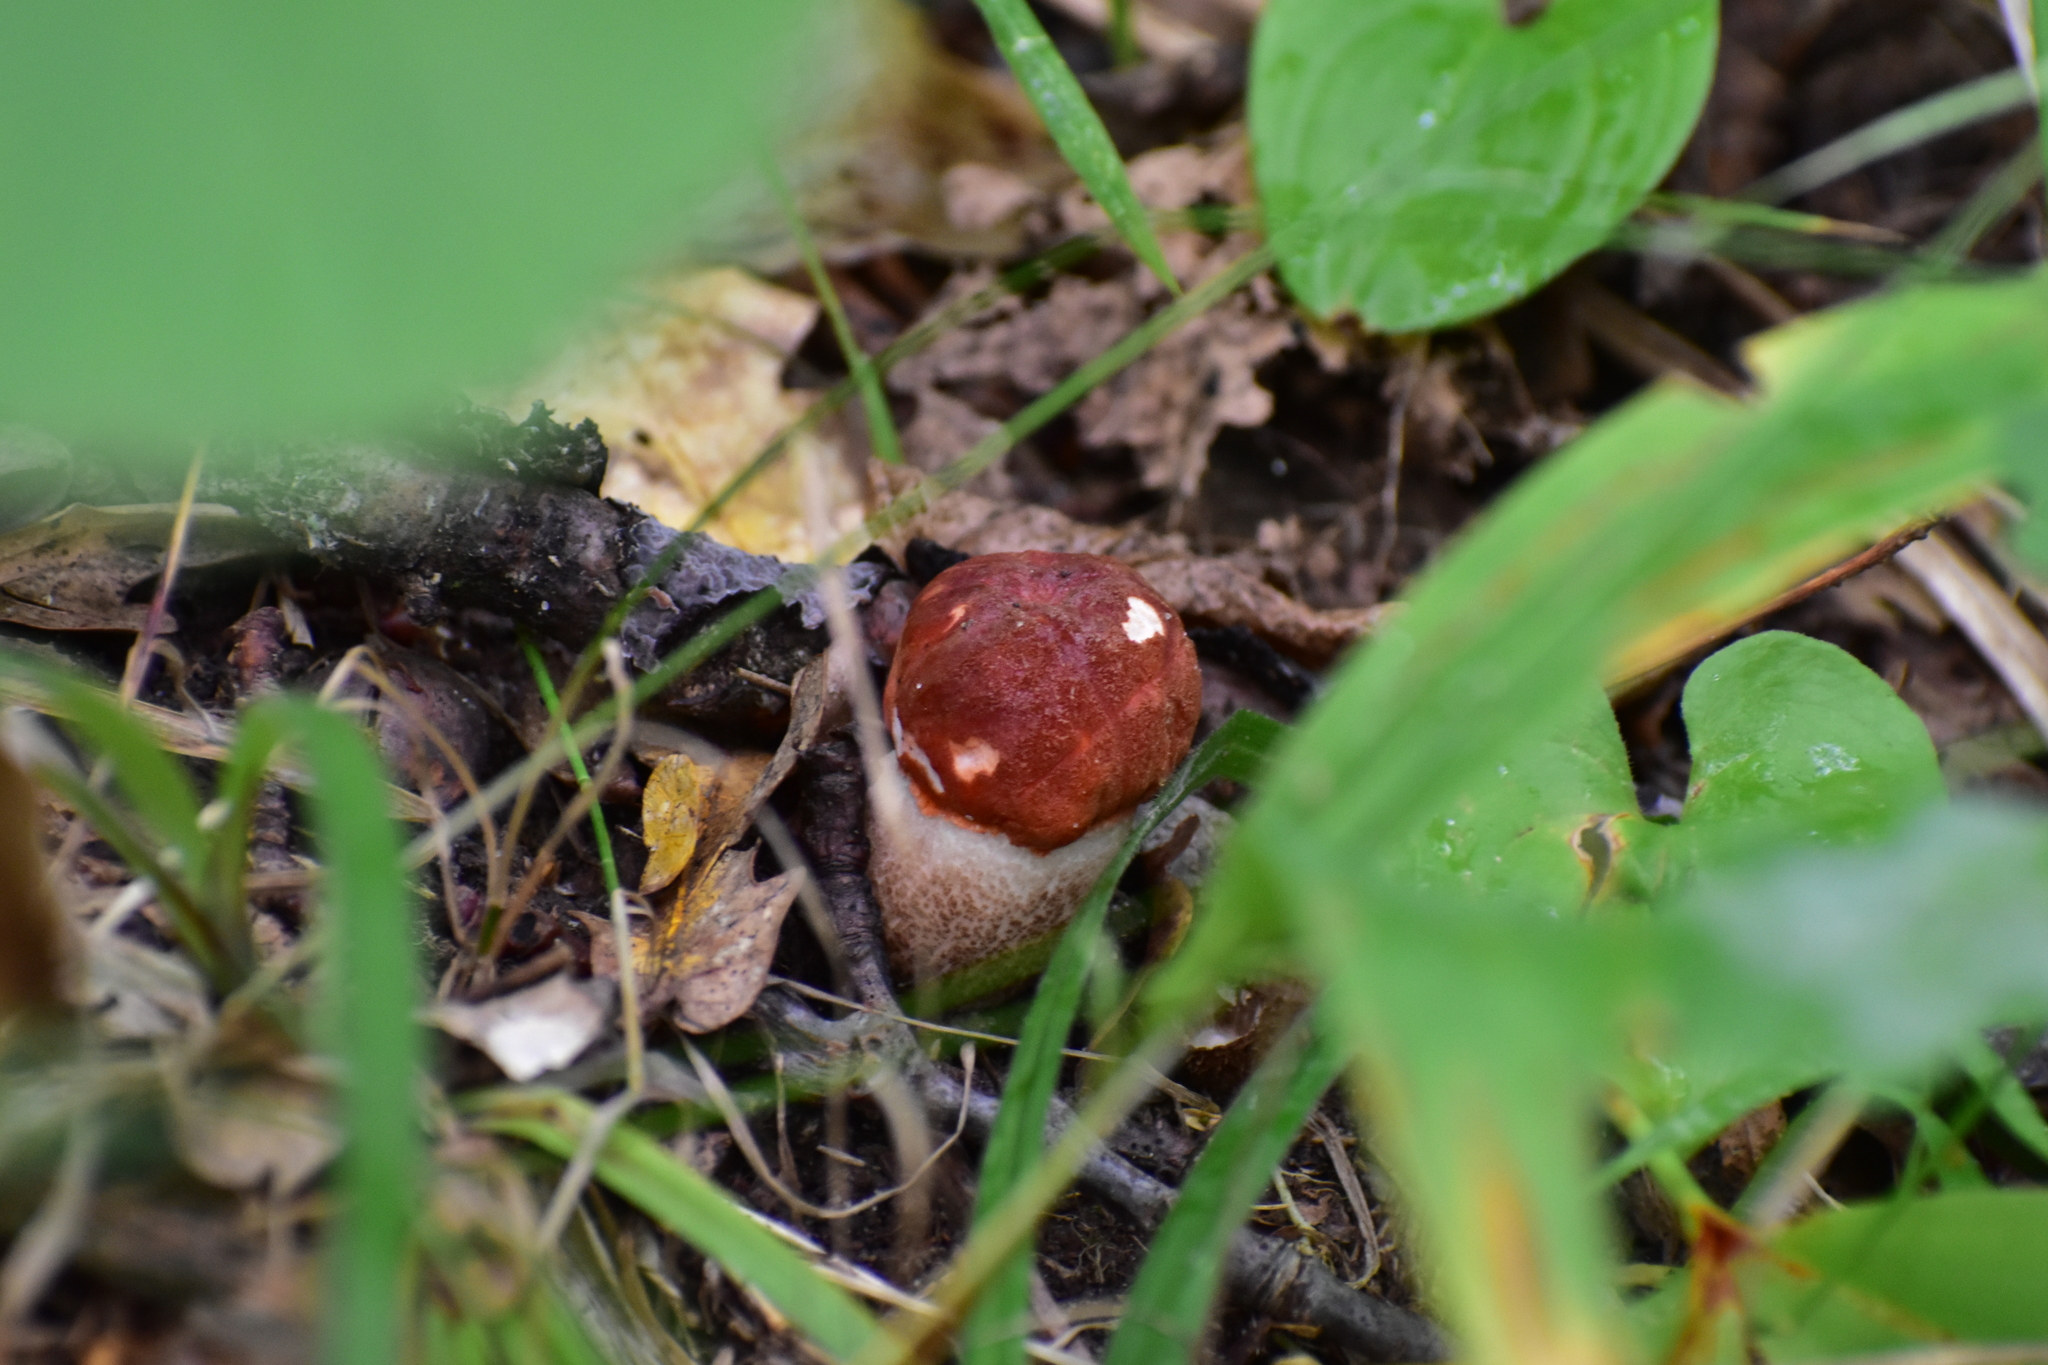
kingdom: Fungi
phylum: Basidiomycota
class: Agaricomycetes
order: Boletales
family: Boletaceae
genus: Leccinum
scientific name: Leccinum aurantiacum
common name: Orange bolete
